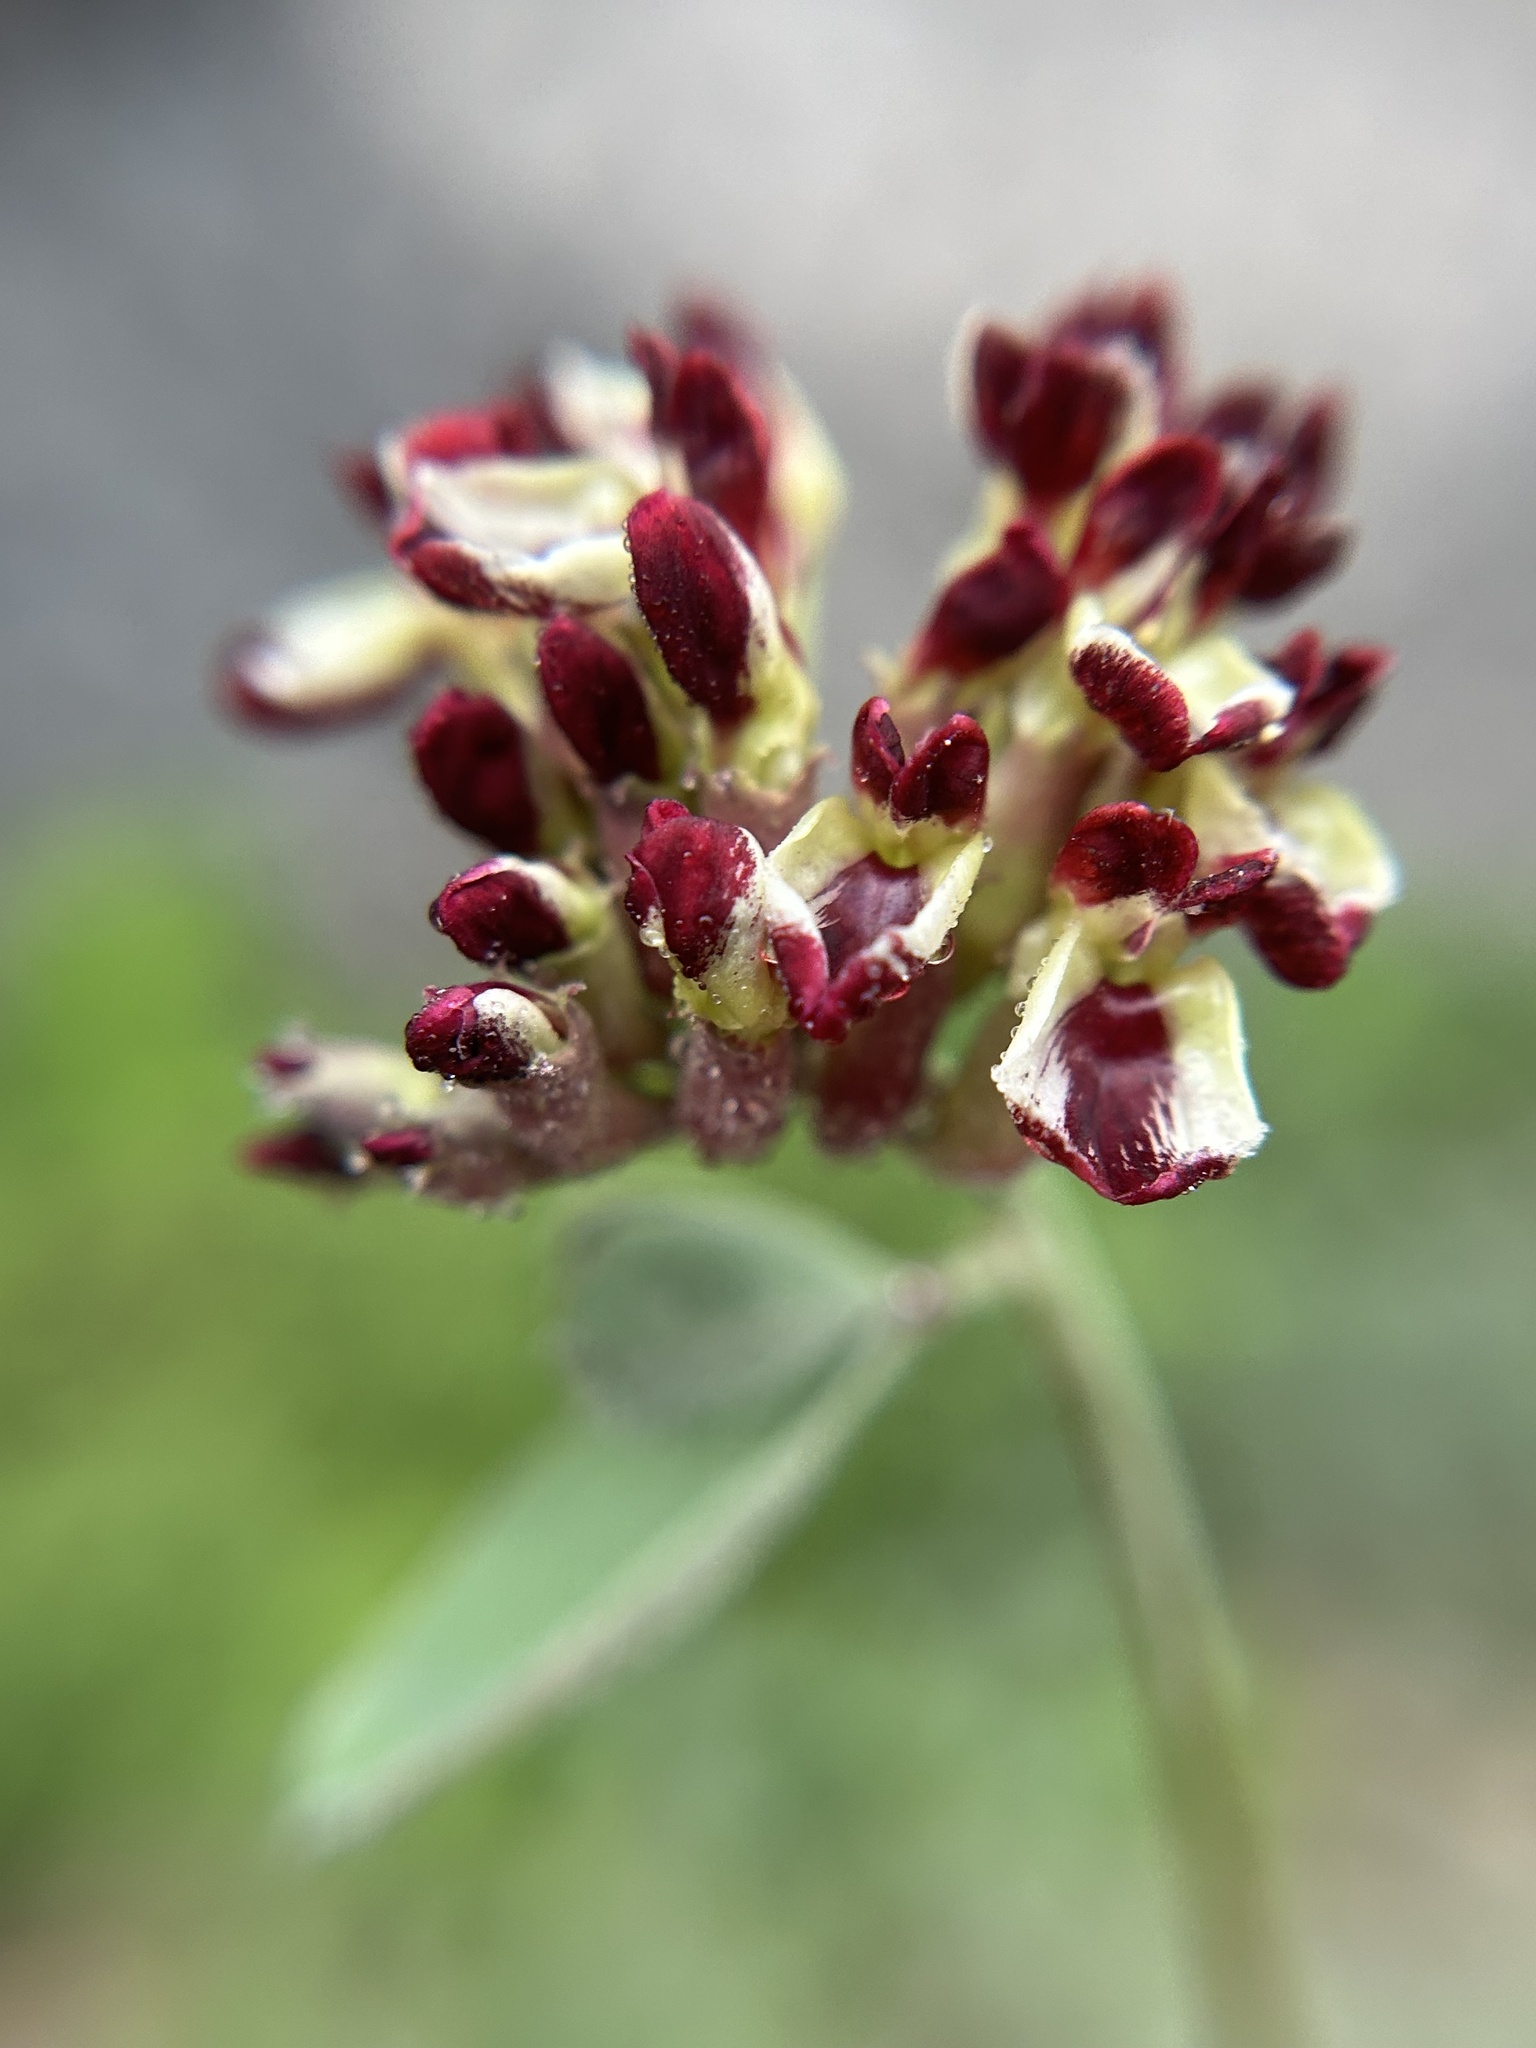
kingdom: Plantae
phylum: Tracheophyta
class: Magnoliopsida
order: Fabales
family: Fabaceae
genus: Hosackia
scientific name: Hosackia crassifolia
